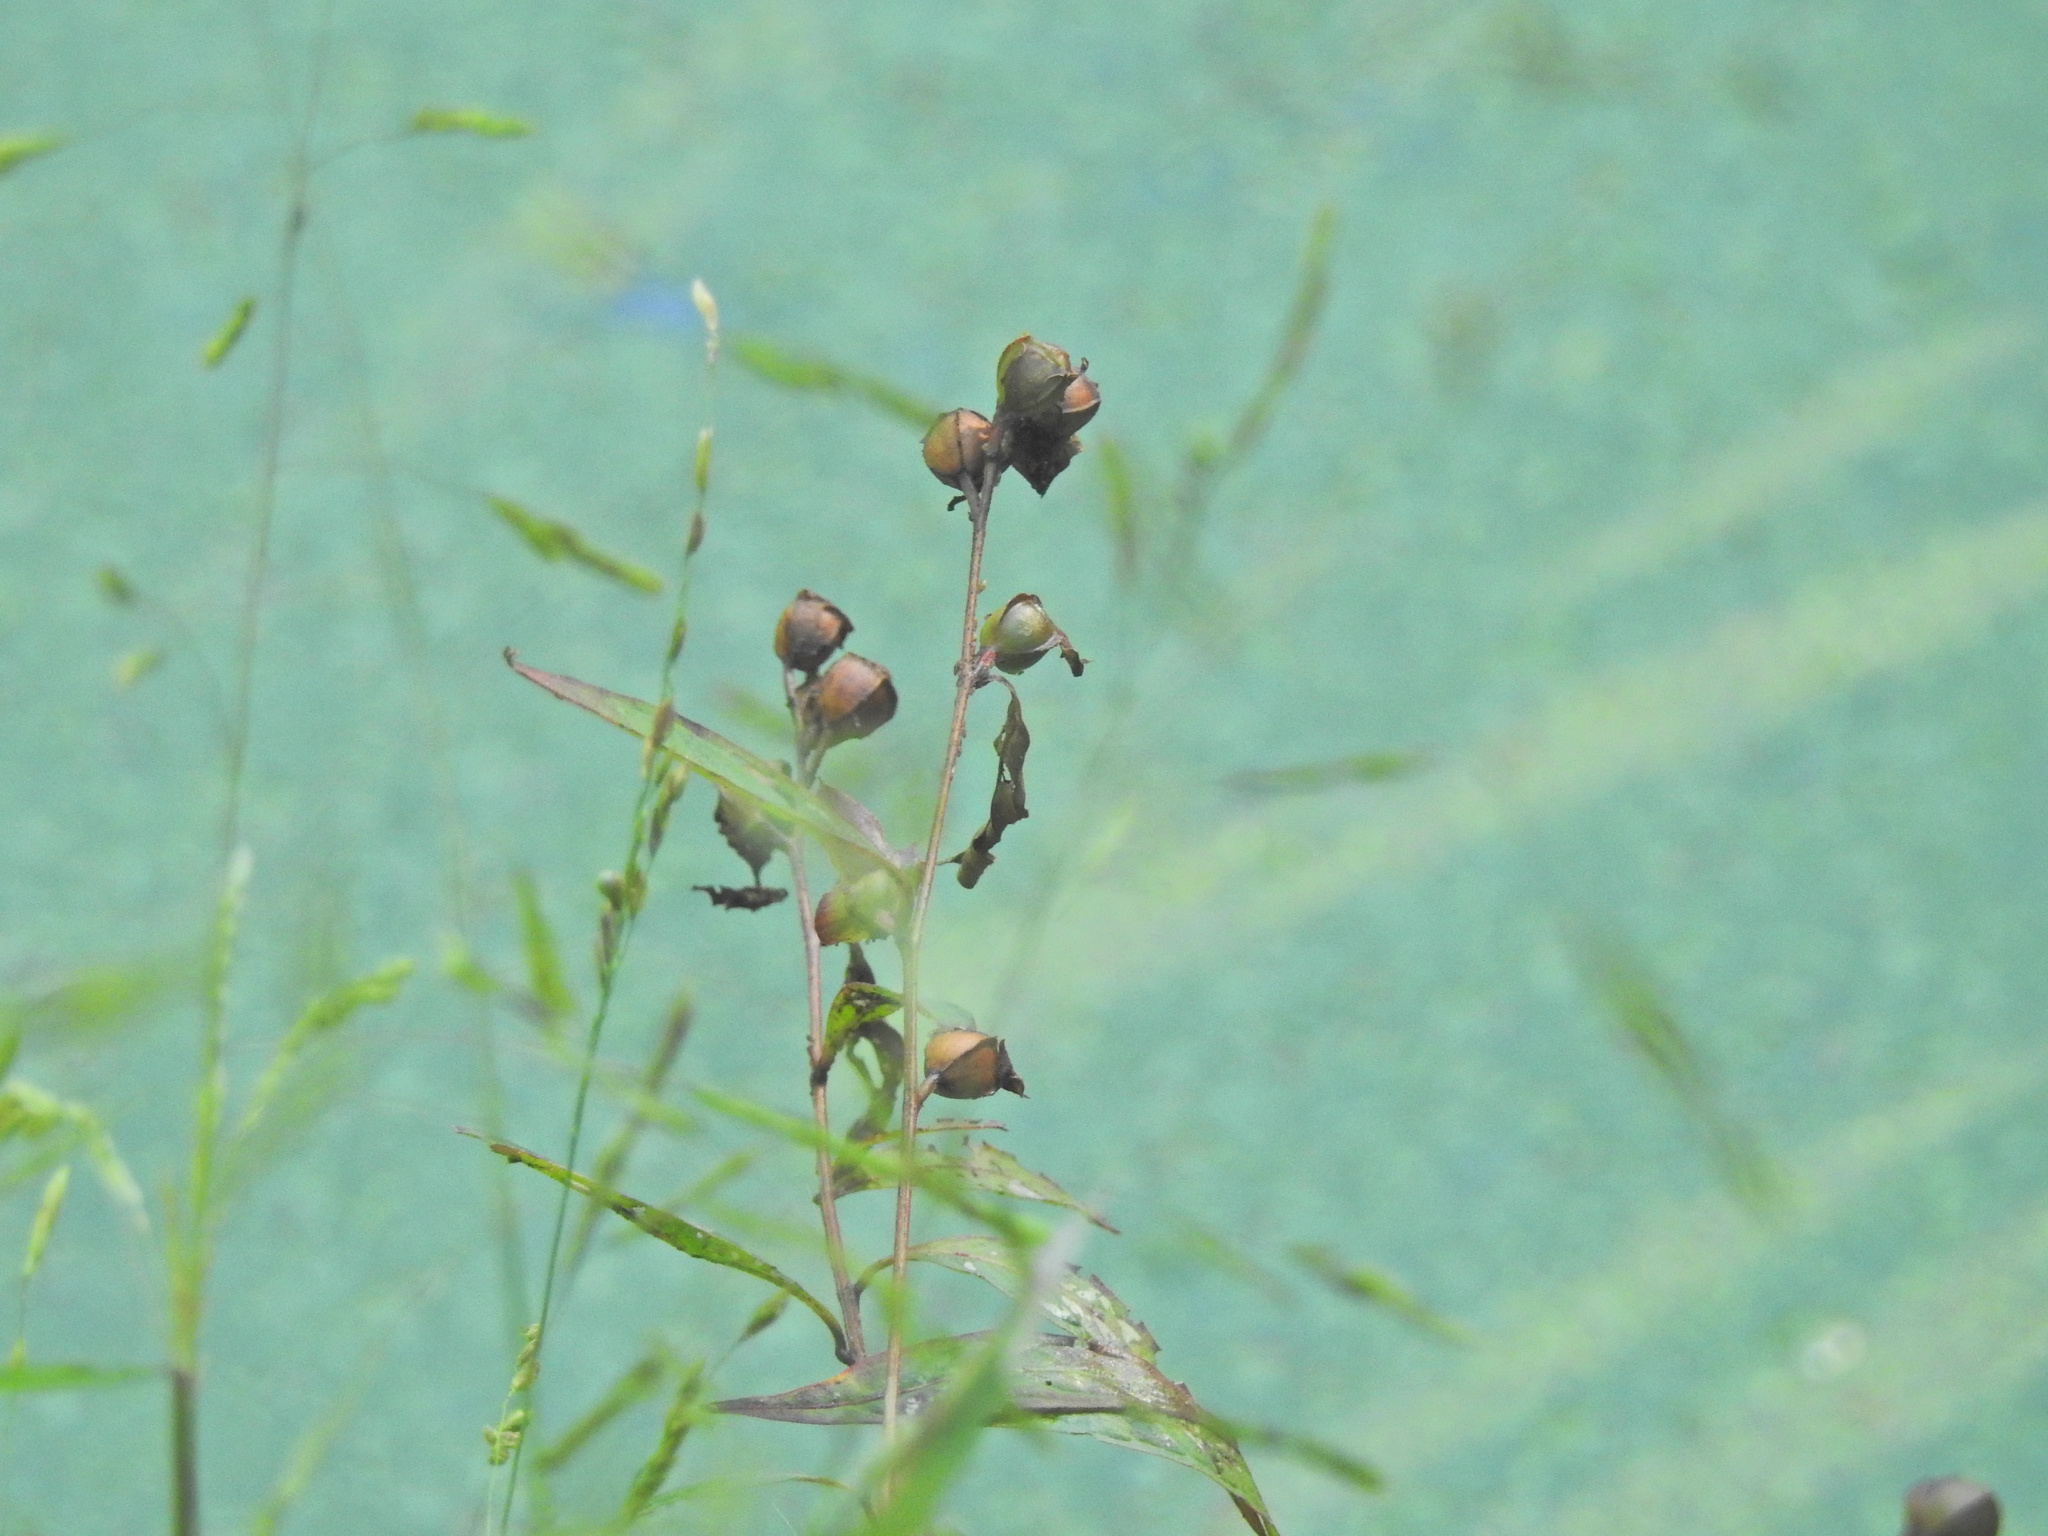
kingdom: Plantae
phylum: Tracheophyta
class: Magnoliopsida
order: Myrtales
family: Onagraceae
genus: Ludwigia
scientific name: Ludwigia alternifolia
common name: Rattlebox
